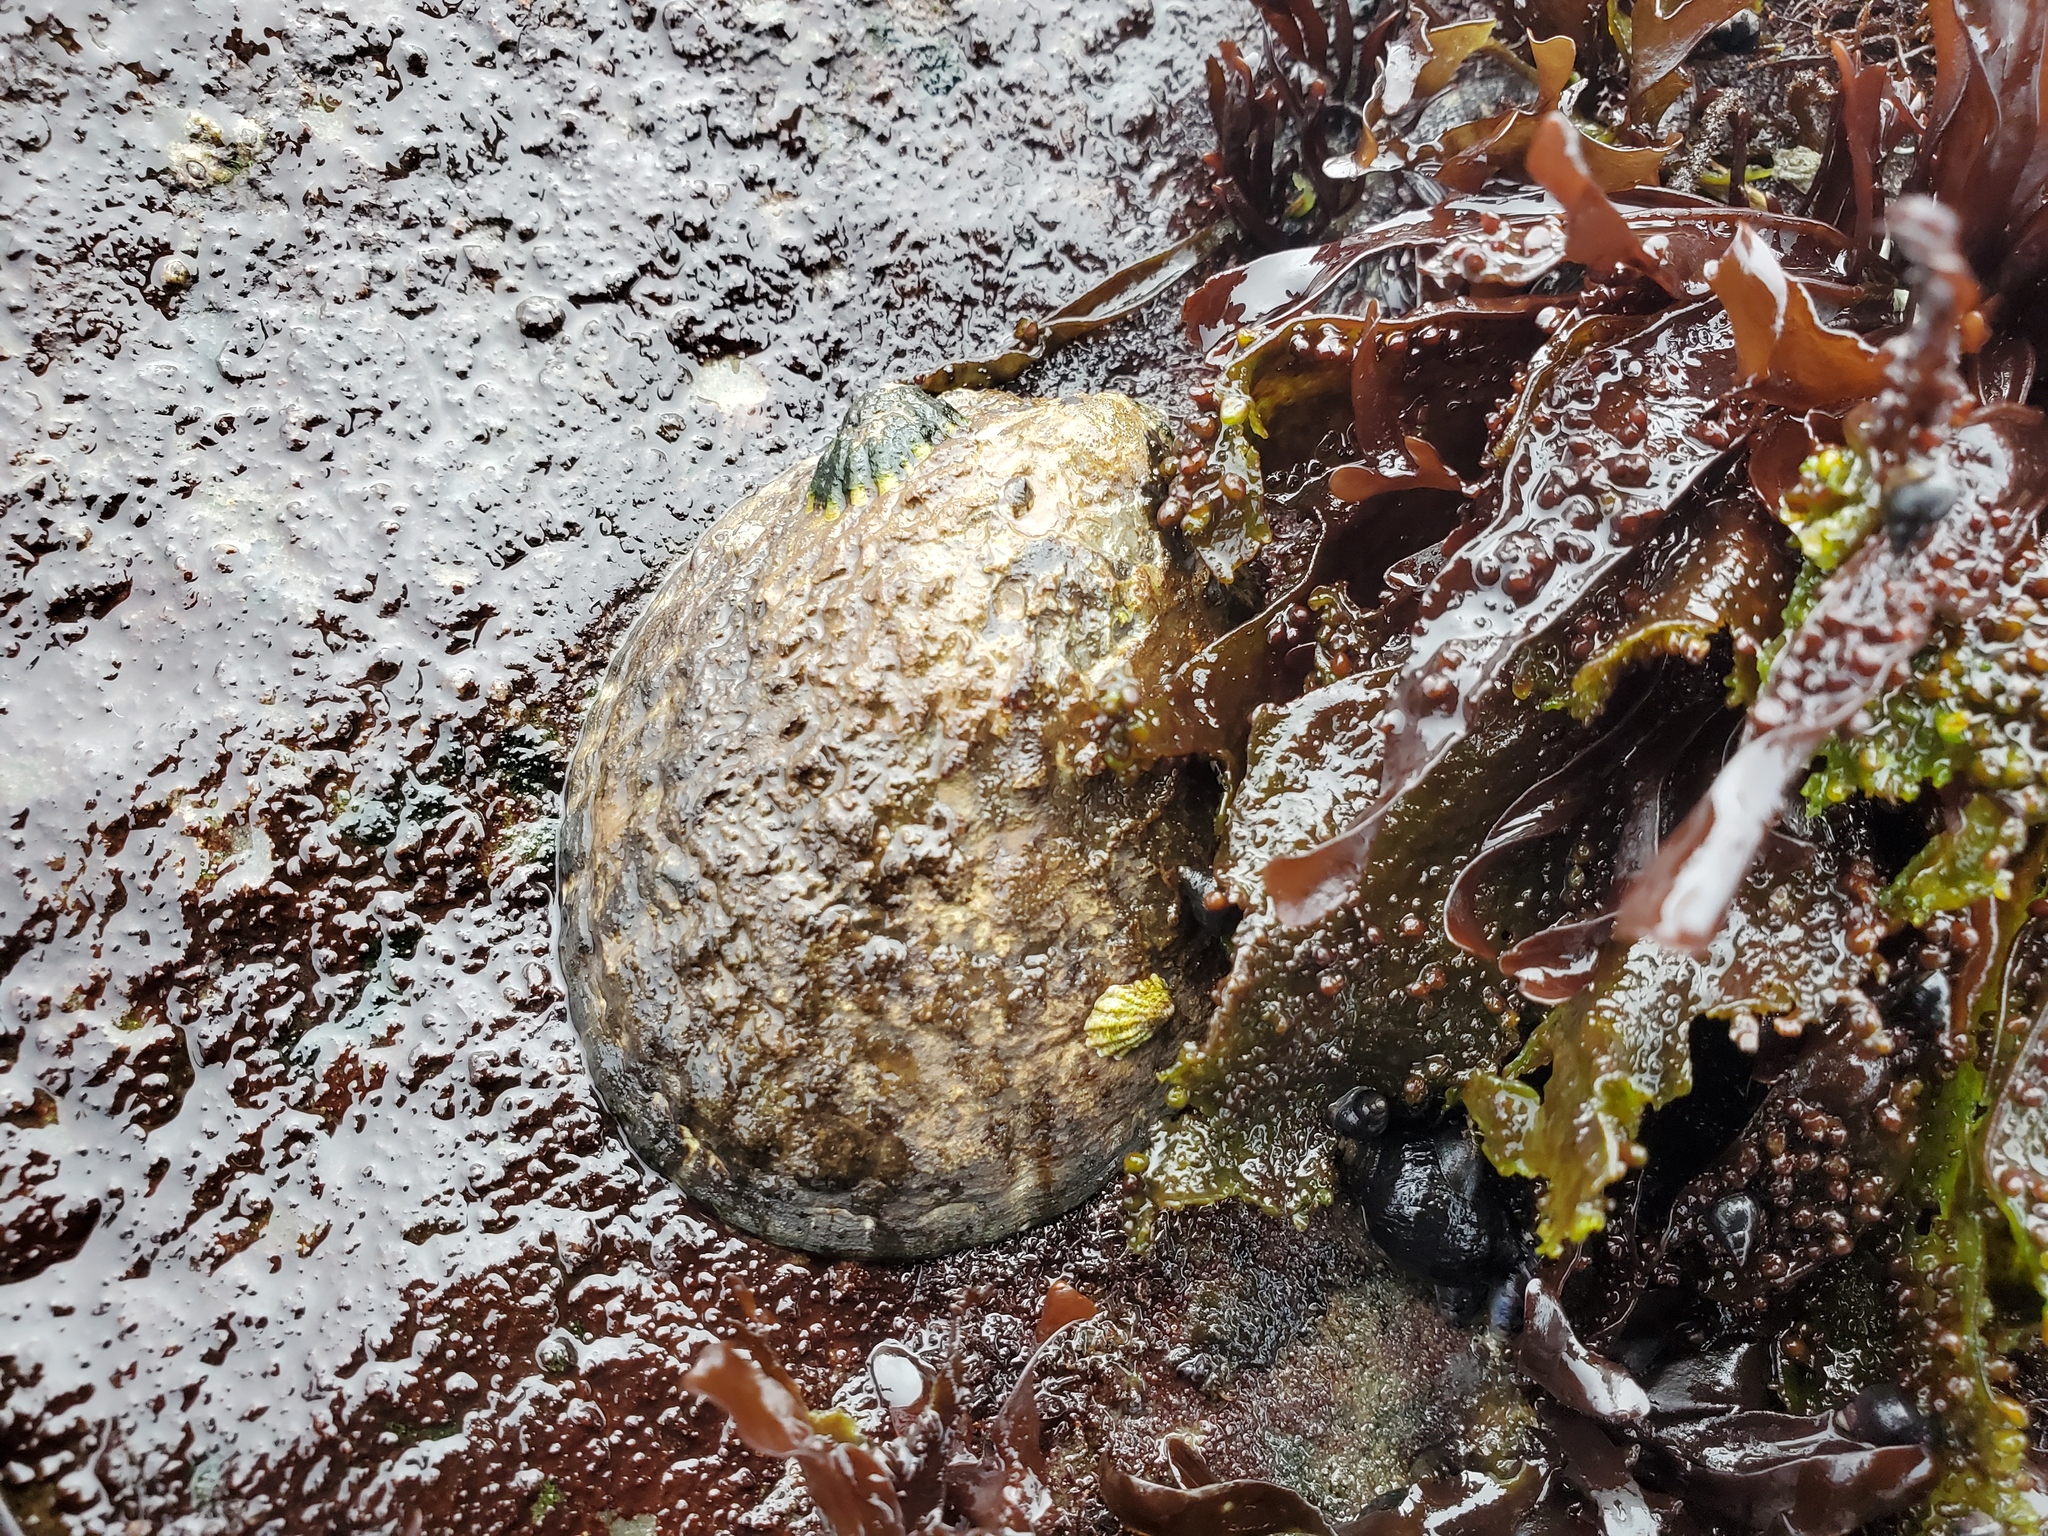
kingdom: Animalia
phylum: Mollusca
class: Gastropoda
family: Lottiidae
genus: Lottia
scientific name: Lottia gigantea
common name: Owl limpet
